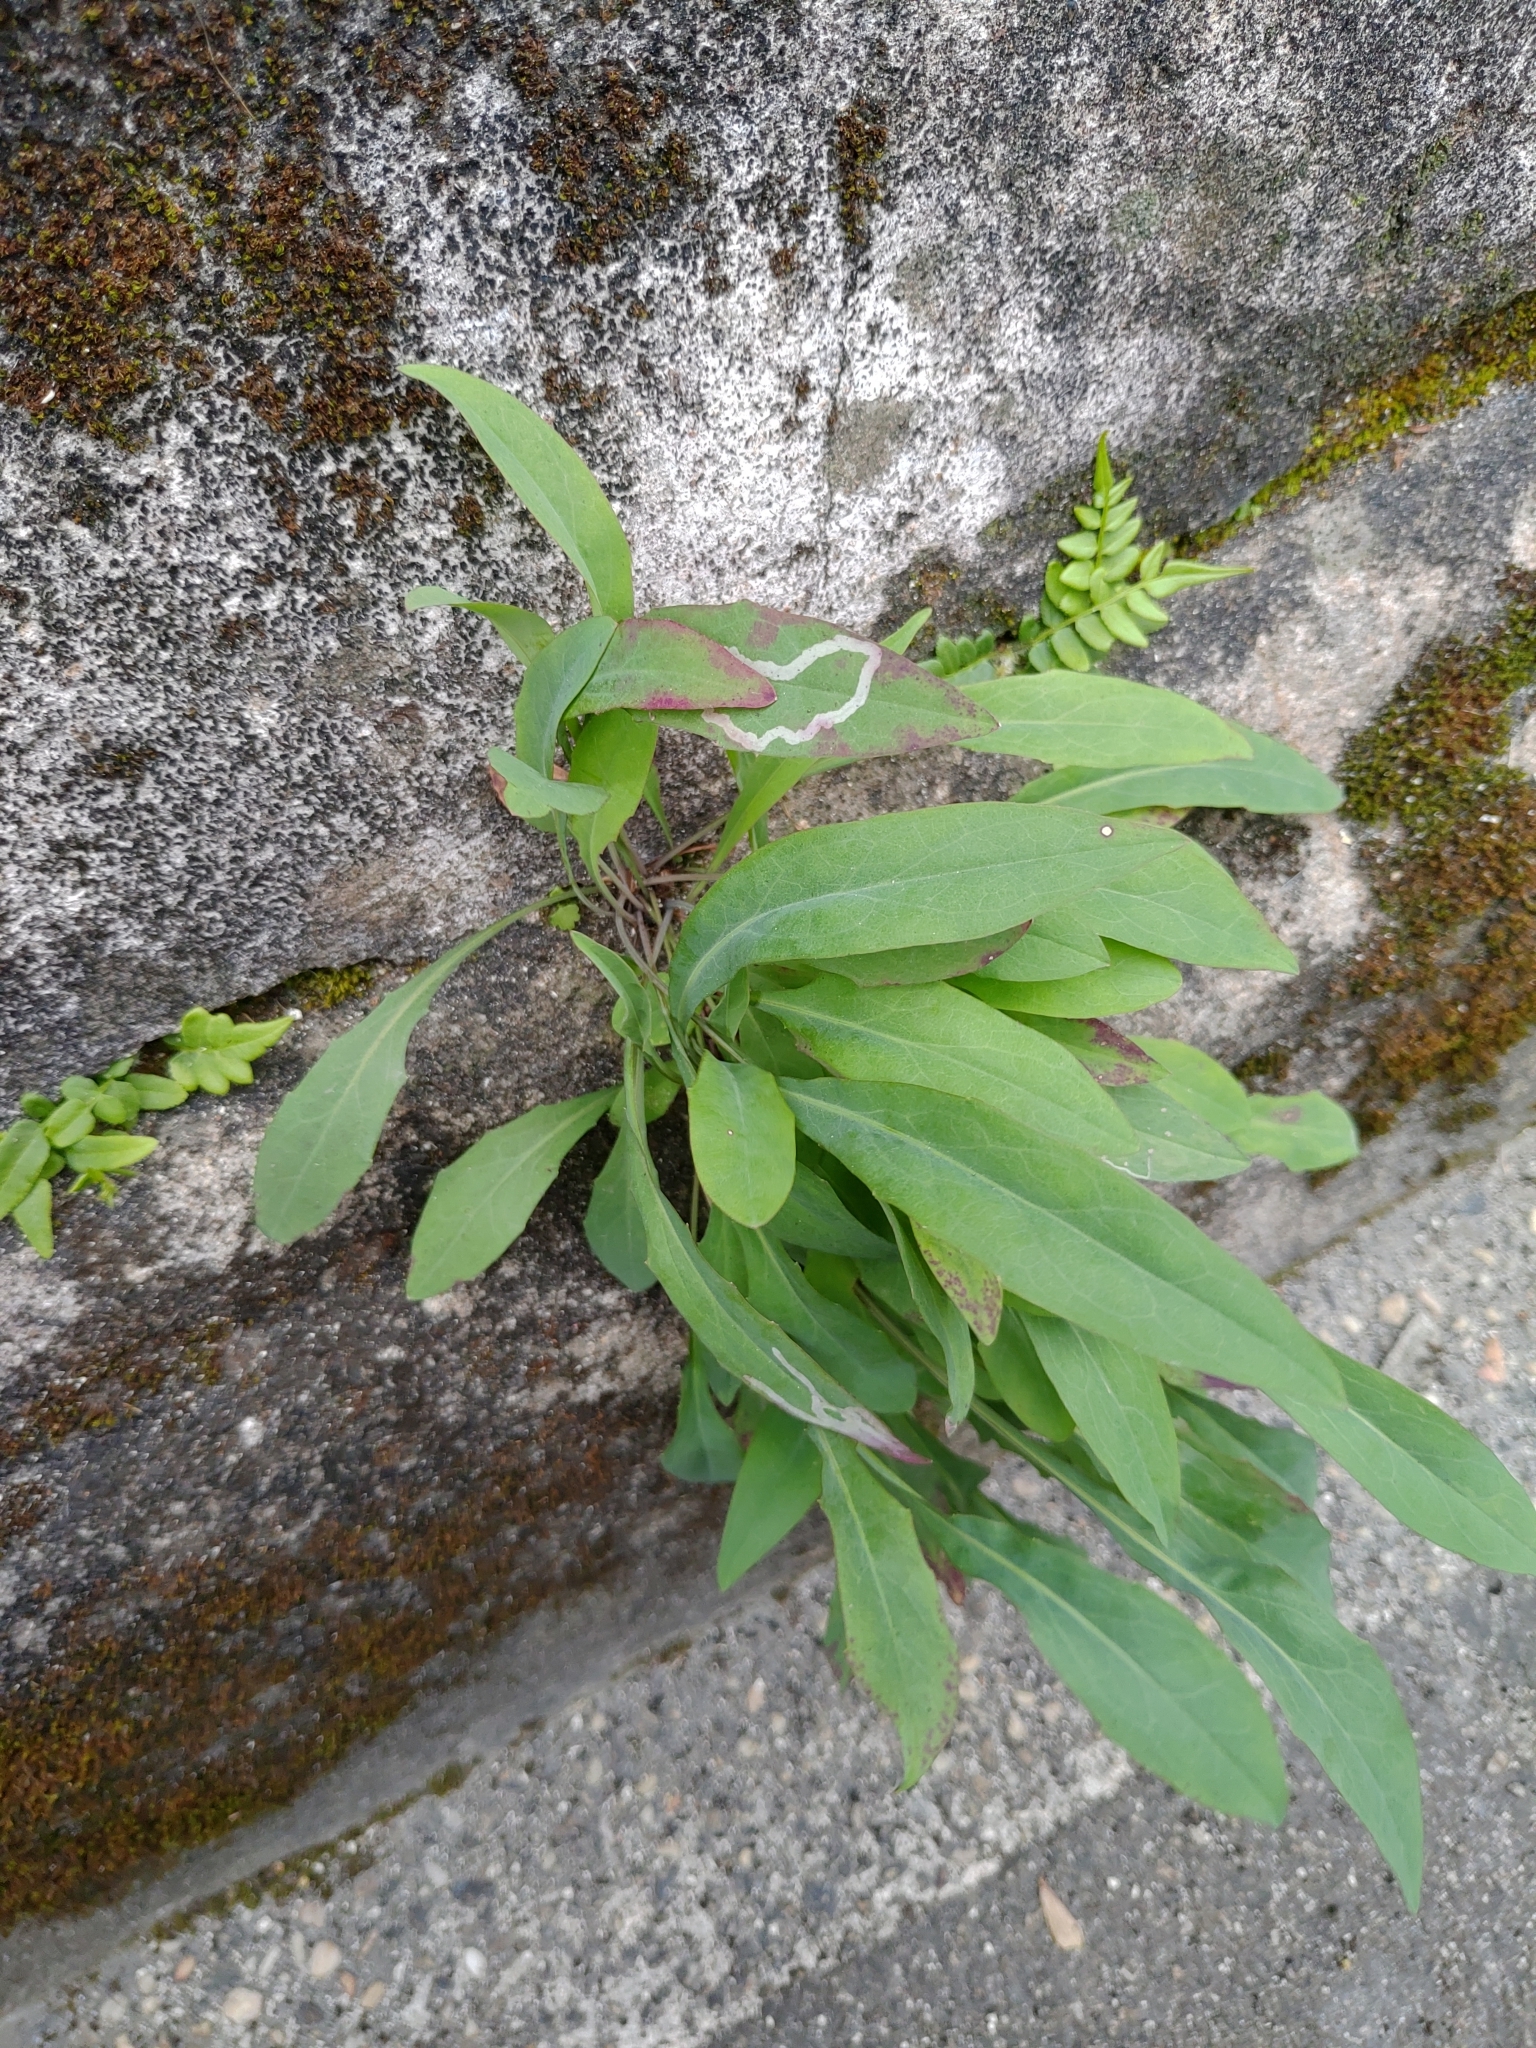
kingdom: Plantae
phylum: Tracheophyta
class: Magnoliopsida
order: Asterales
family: Asteraceae
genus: Ixeris
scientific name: Ixeris chinensis
